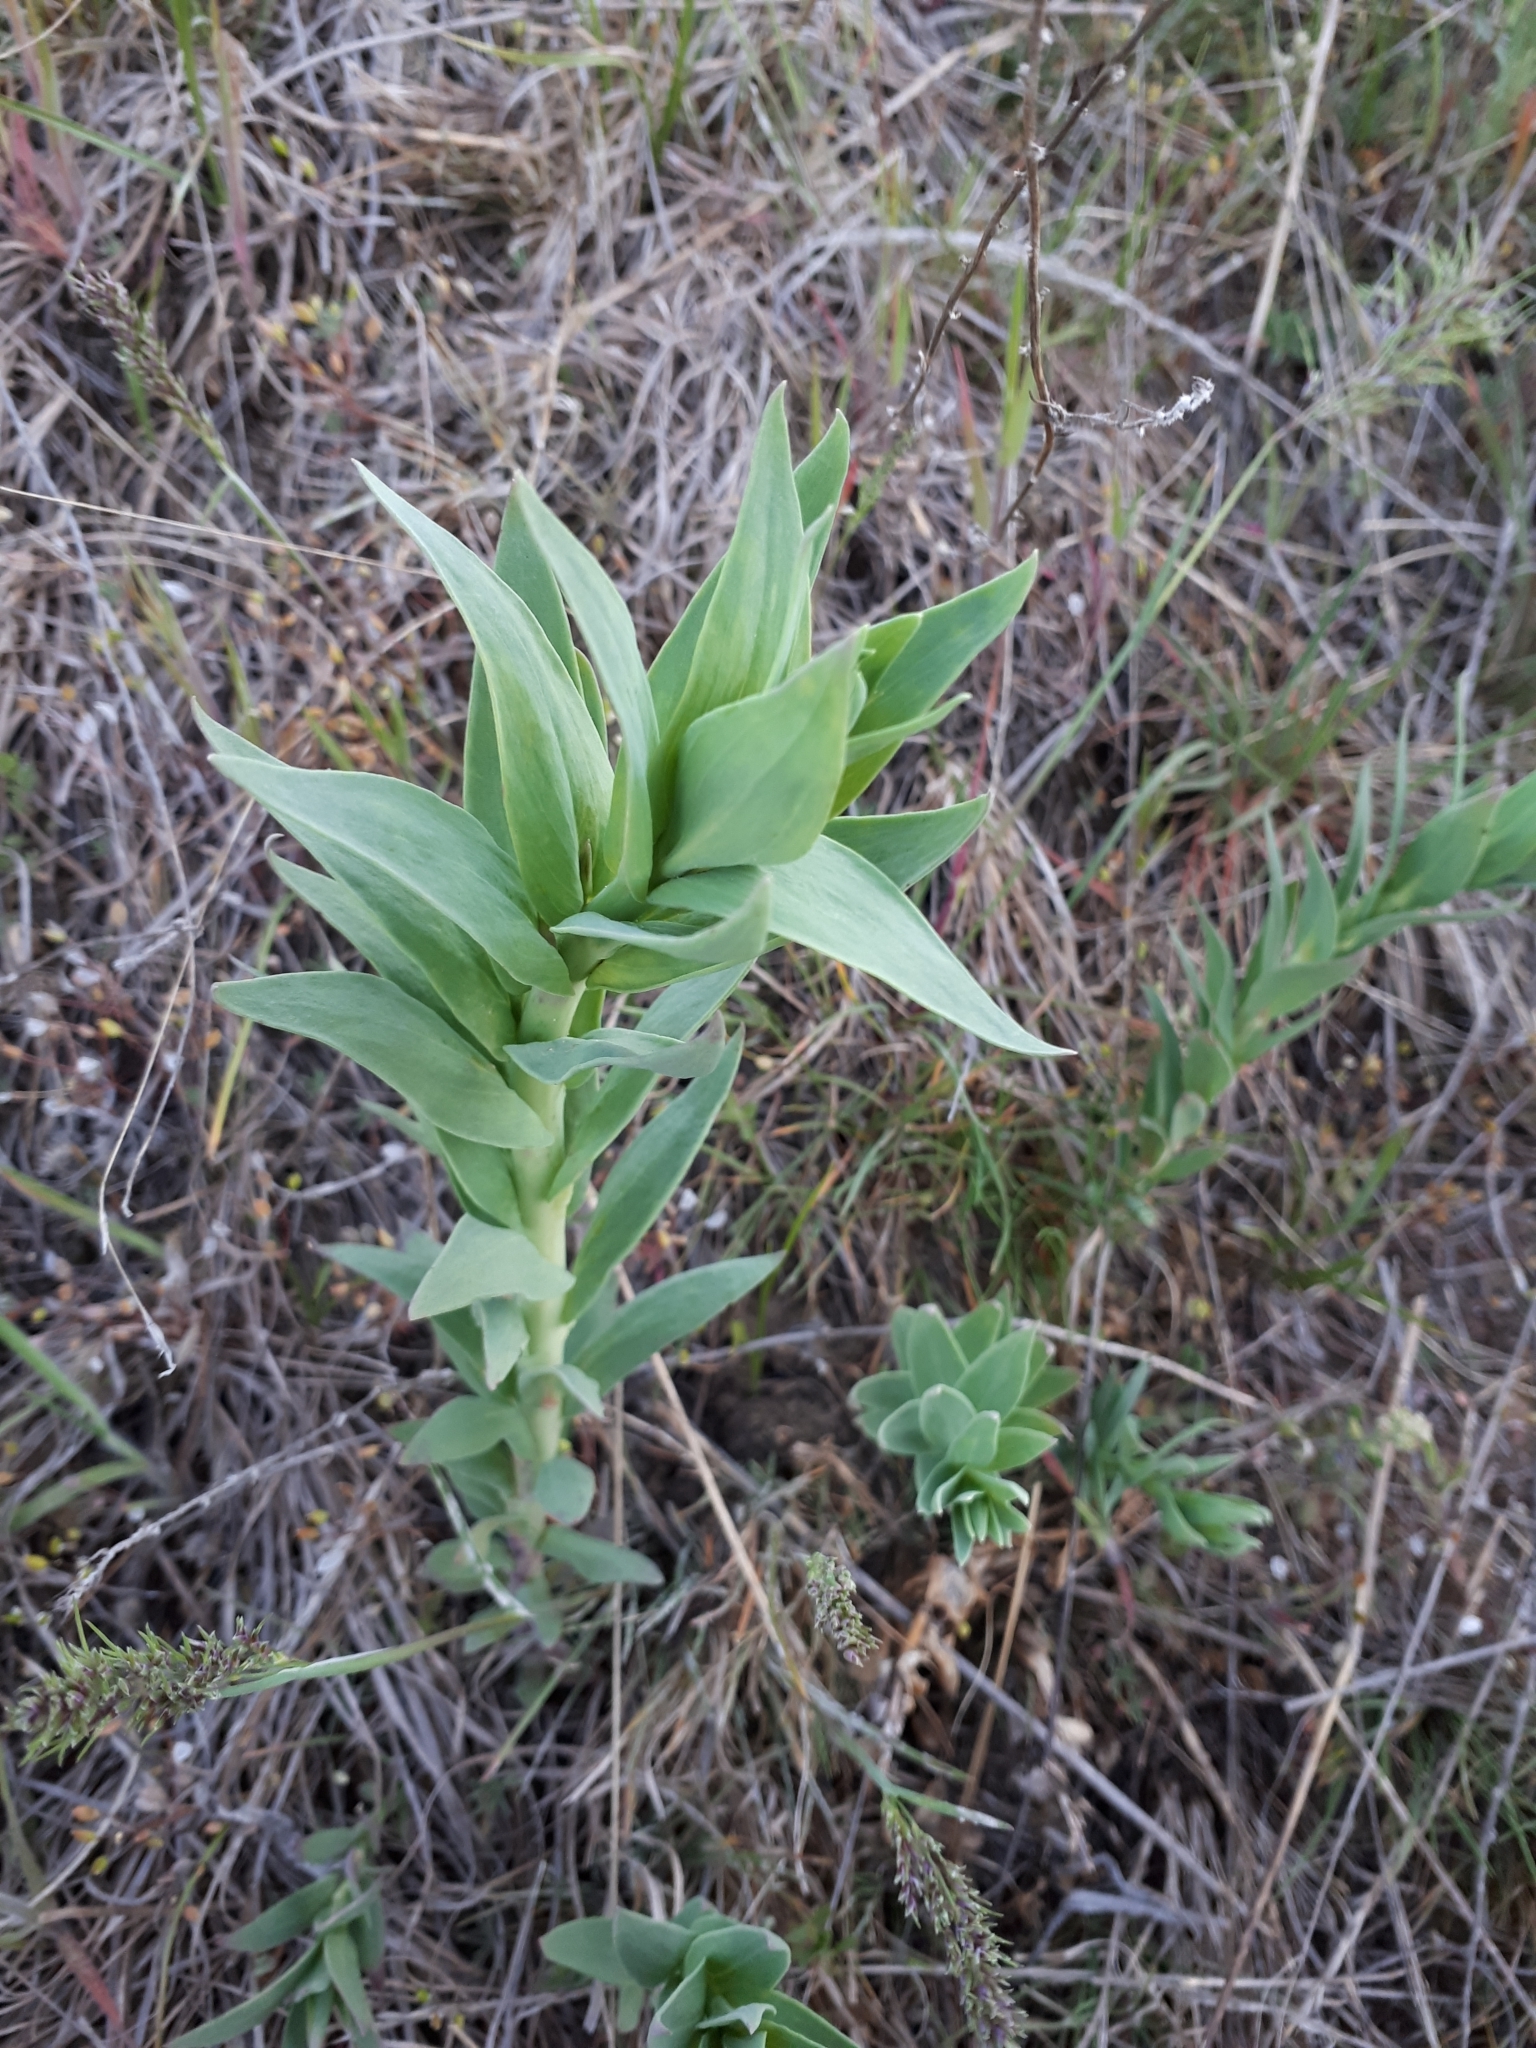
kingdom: Plantae
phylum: Tracheophyta
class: Magnoliopsida
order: Lamiales
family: Plantaginaceae
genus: Linaria
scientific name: Linaria genistifolia
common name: Broomleaf toadflax
